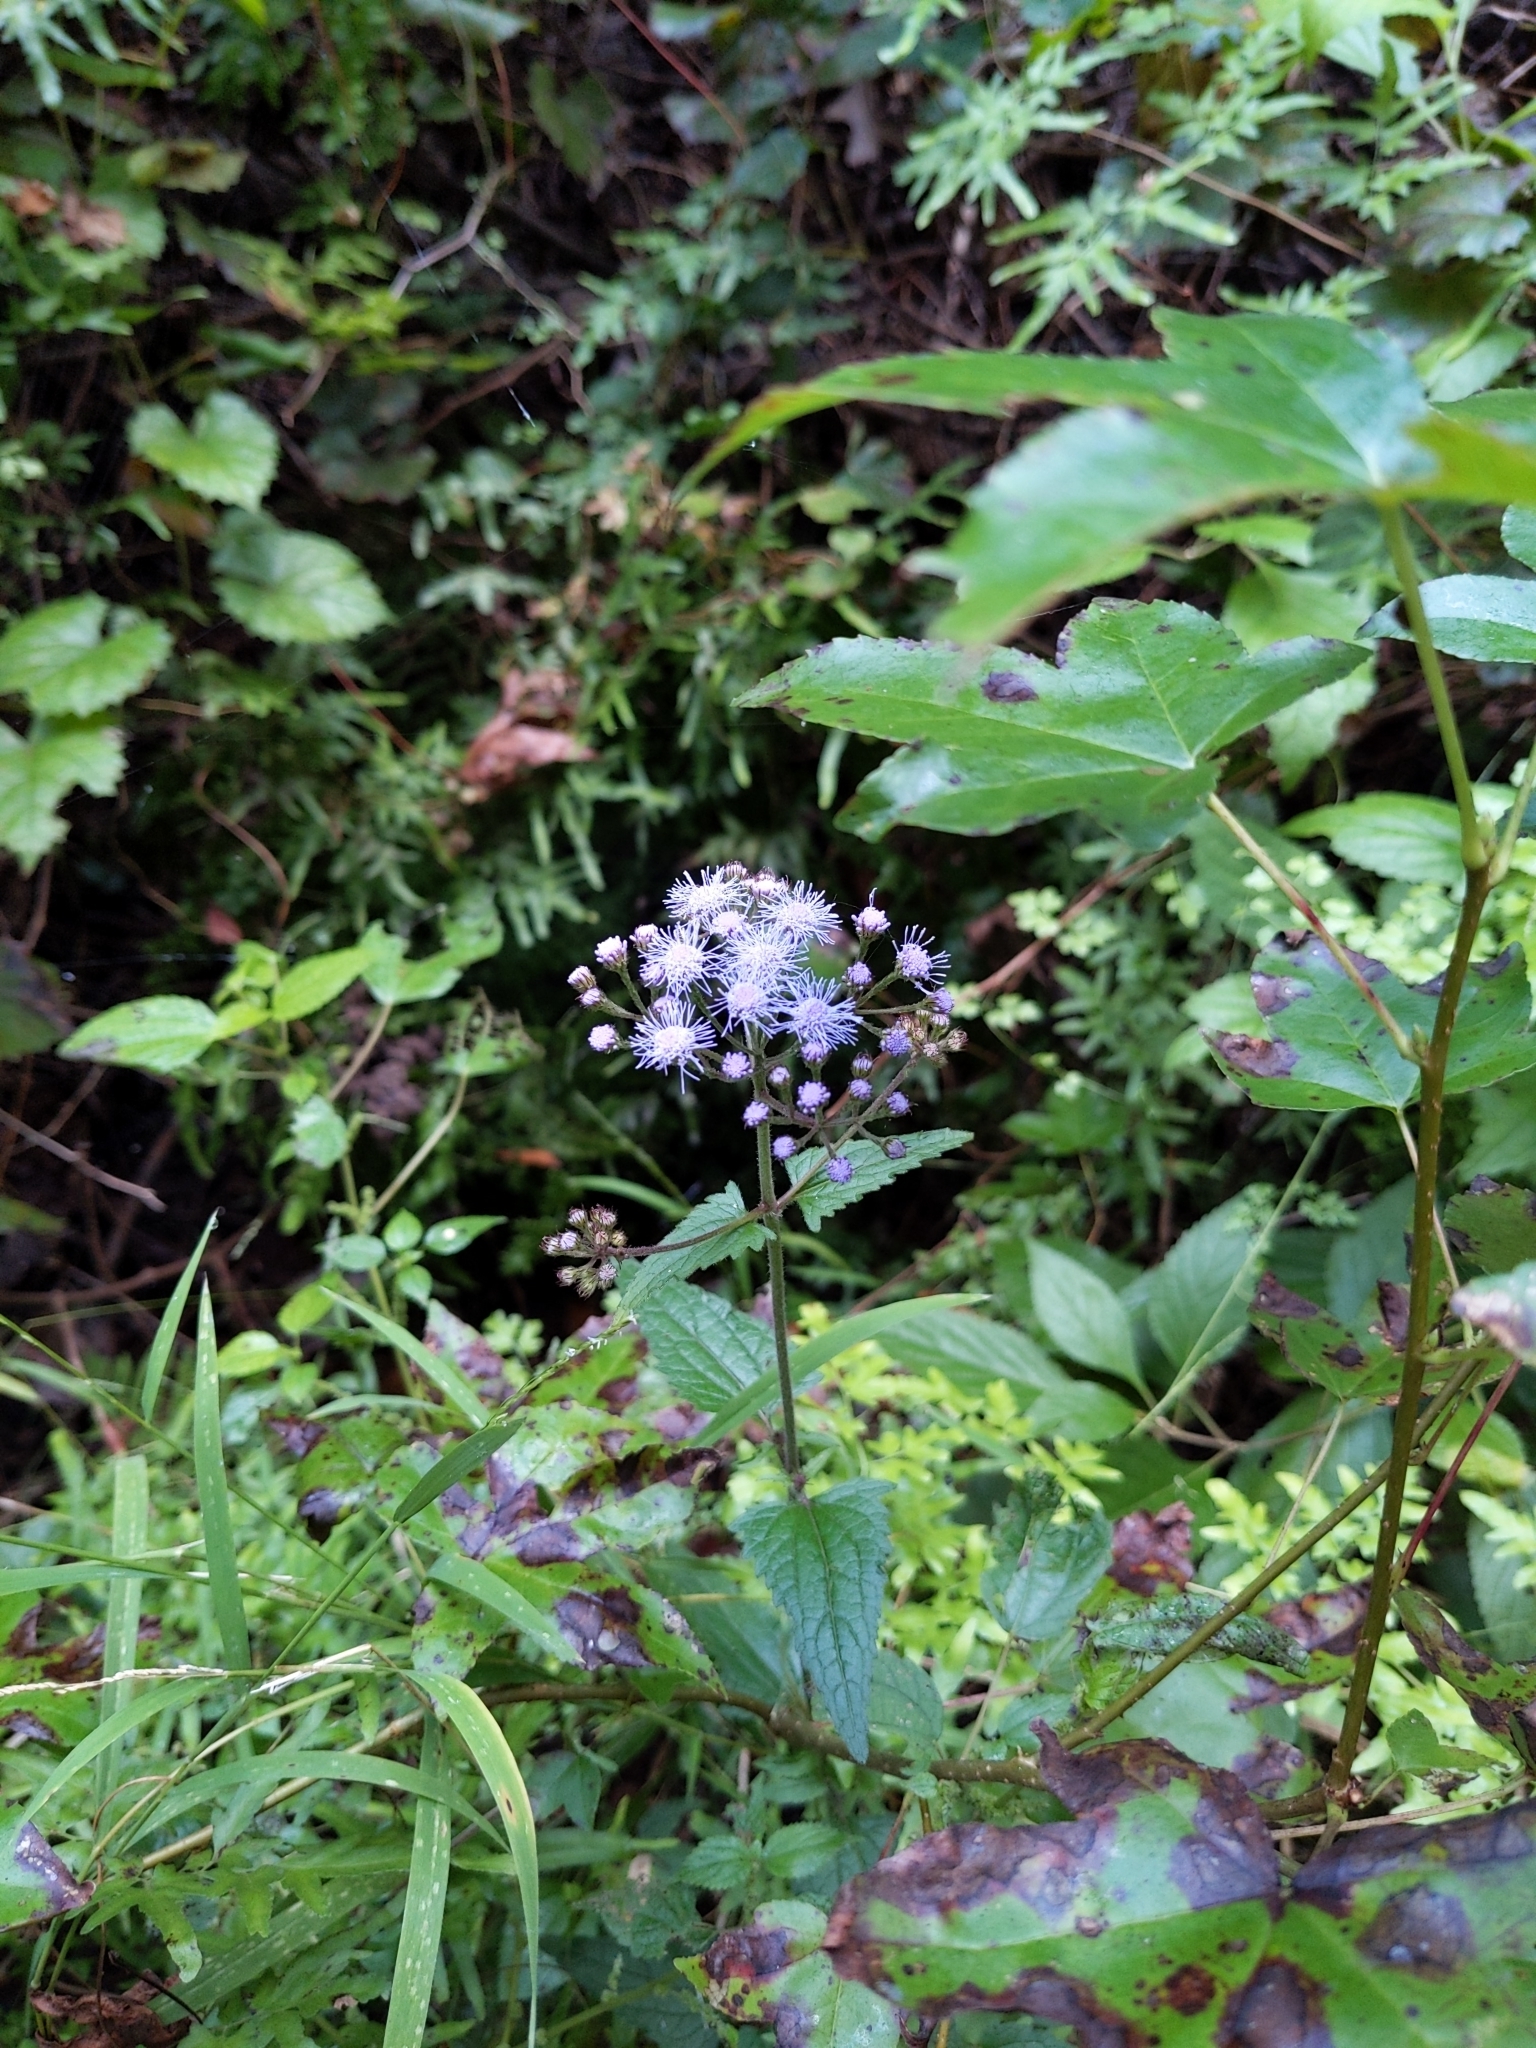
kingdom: Plantae
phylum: Tracheophyta
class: Magnoliopsida
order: Asterales
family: Asteraceae
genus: Conoclinium
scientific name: Conoclinium coelestinum
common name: Blue mistflower
